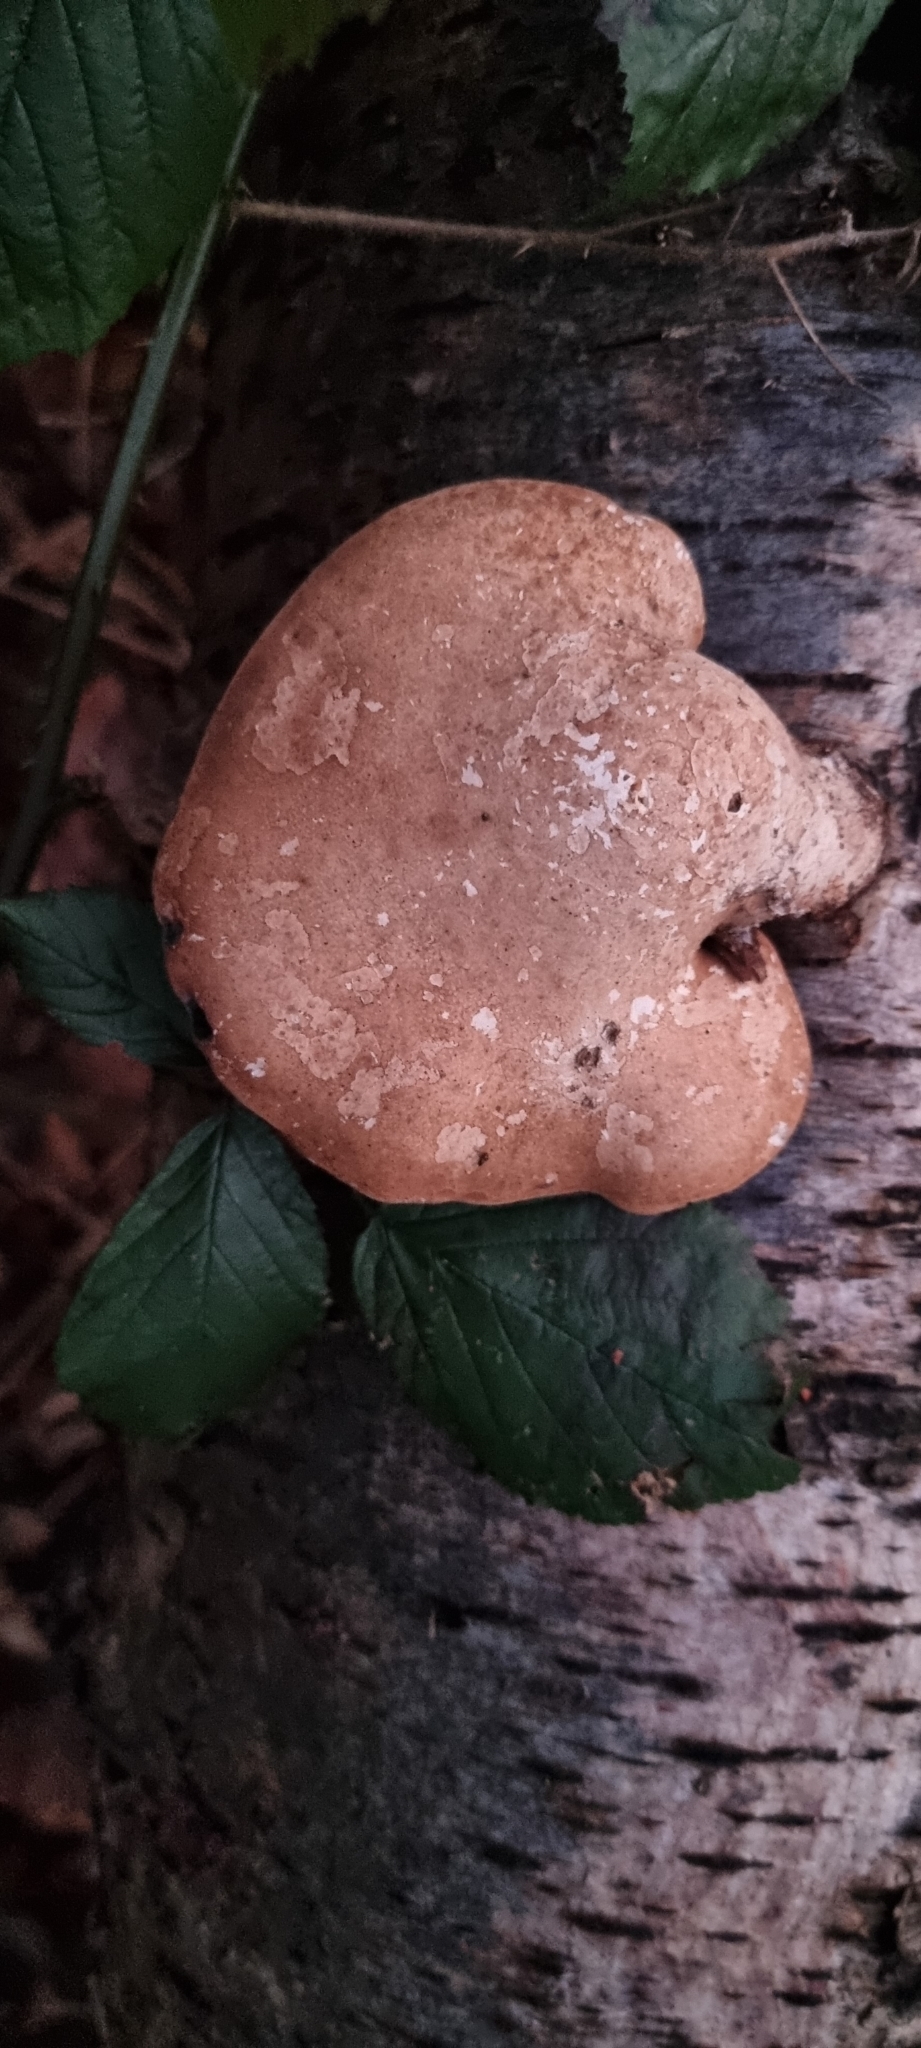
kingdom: Fungi
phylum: Basidiomycota
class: Agaricomycetes
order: Polyporales
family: Fomitopsidaceae
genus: Fomitopsis
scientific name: Fomitopsis betulina
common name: Birch polypore
